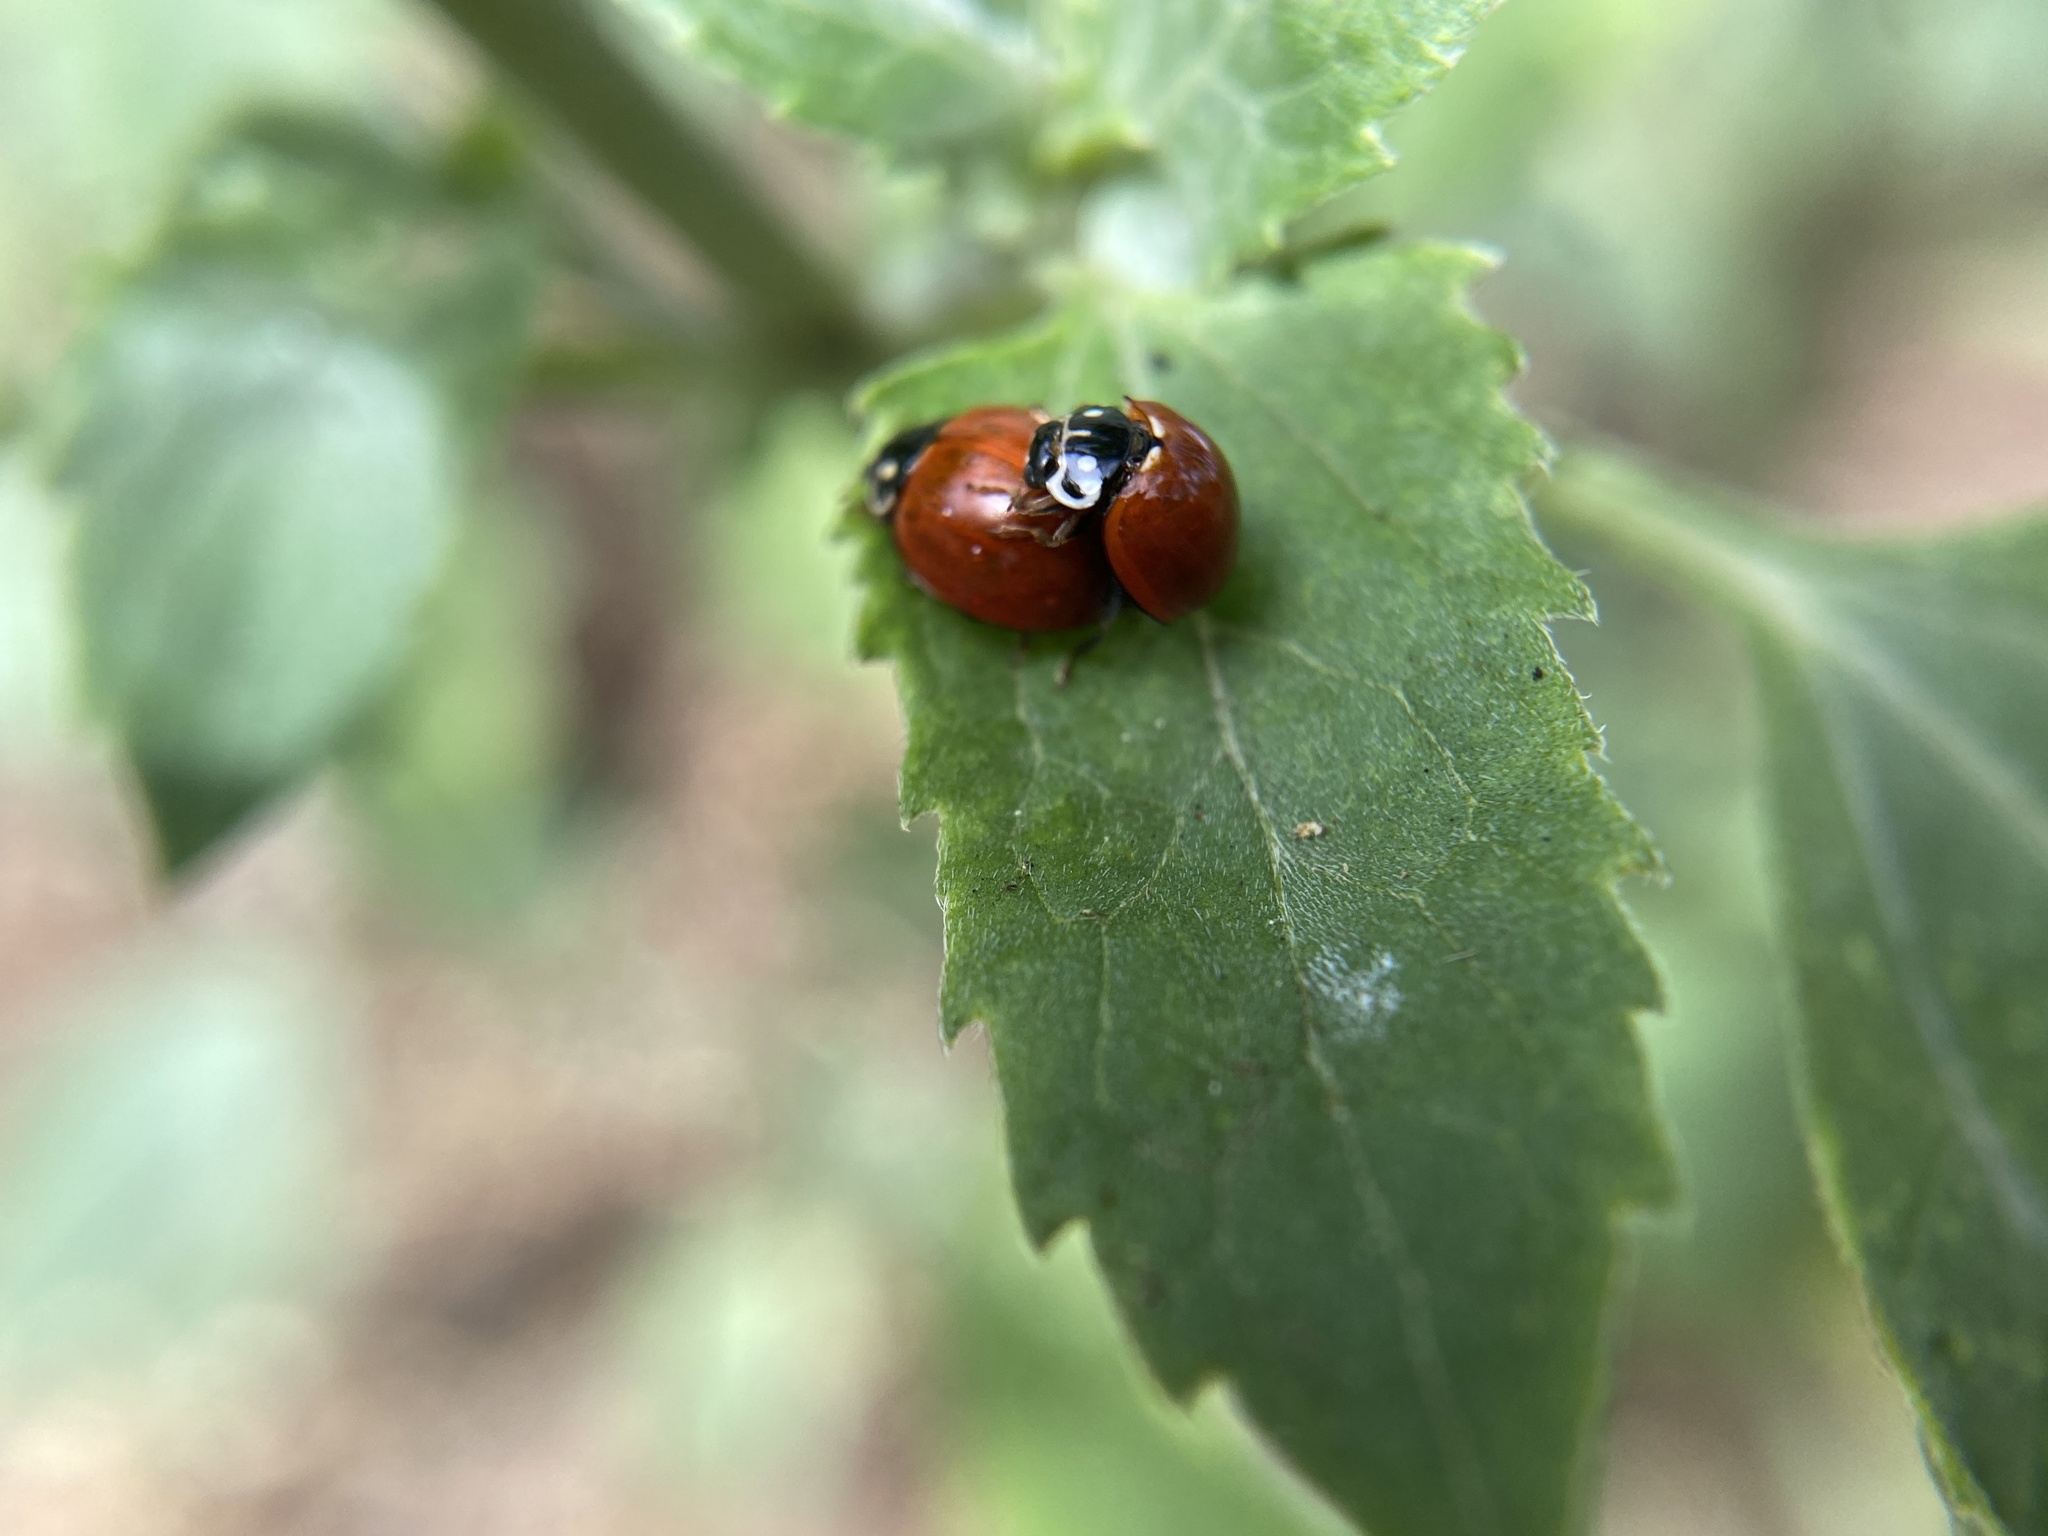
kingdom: Animalia
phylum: Arthropoda
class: Insecta
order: Coleoptera
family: Coccinellidae
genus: Cycloneda
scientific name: Cycloneda sanguinea
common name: Ladybird beetle
